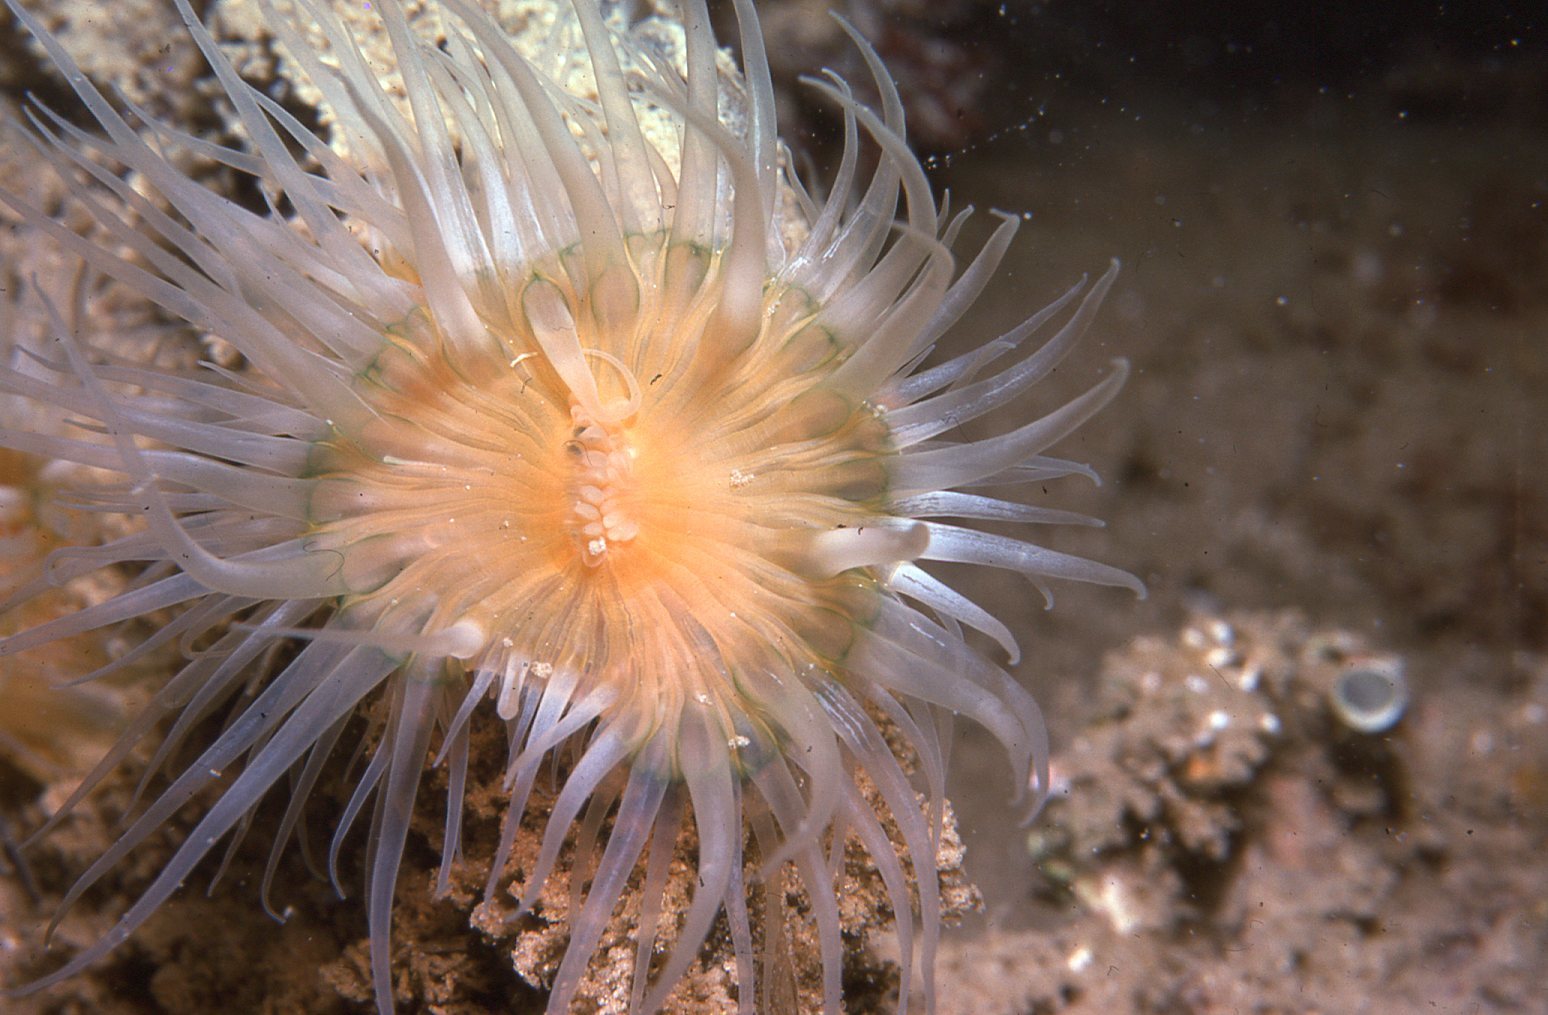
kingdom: Animalia
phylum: Cnidaria
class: Anthozoa
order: Actiniaria
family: Sagartiidae
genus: Anthothoe
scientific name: Anthothoe albocincta
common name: Orange striped anemone
